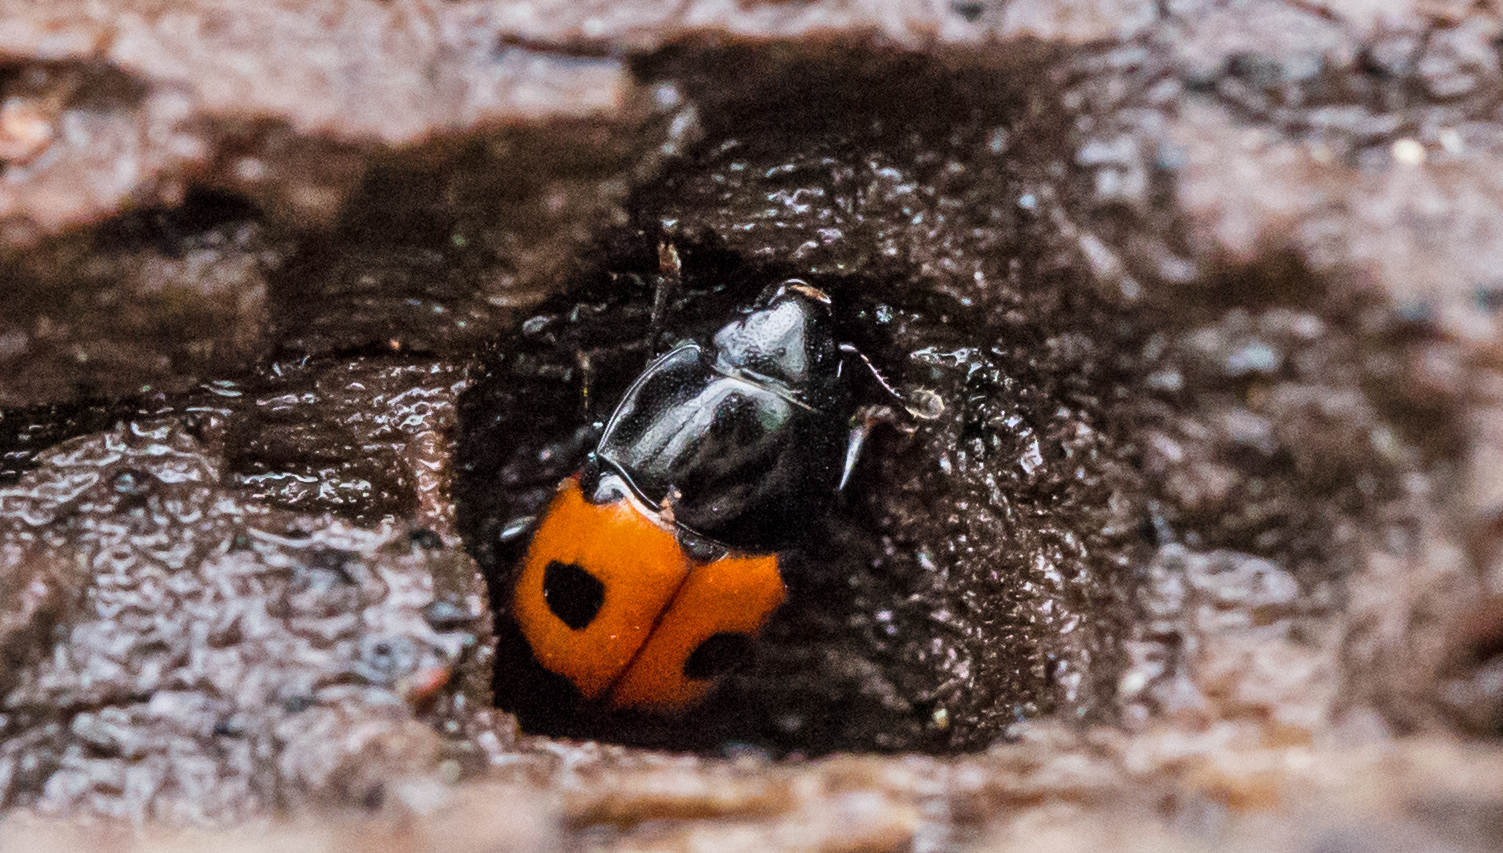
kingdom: Animalia
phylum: Arthropoda
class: Insecta
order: Coleoptera
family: Nitidulidae
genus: Glischrochilus
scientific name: Glischrochilus sanguinolentus
